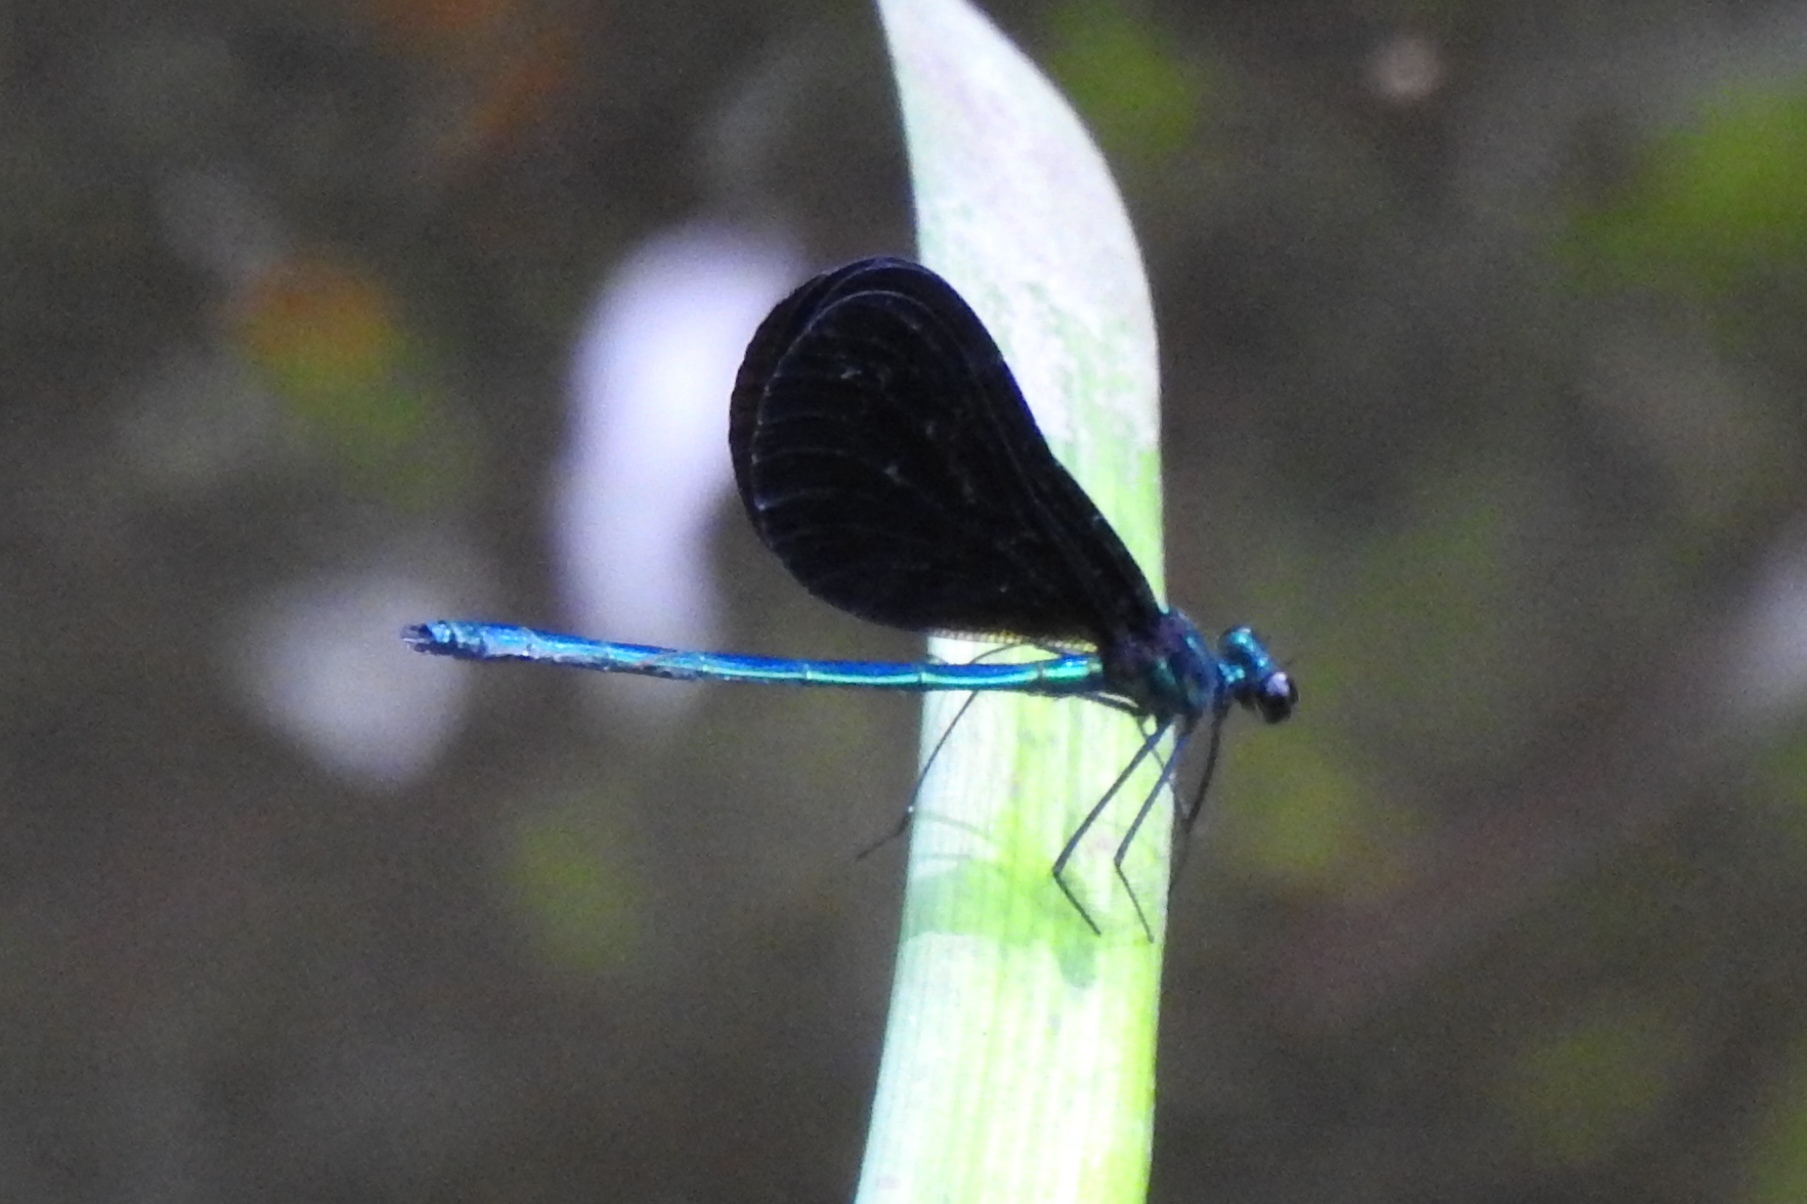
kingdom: Animalia
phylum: Arthropoda
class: Insecta
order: Odonata
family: Calopterygidae
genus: Calopteryx
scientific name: Calopteryx maculata
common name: Ebony jewelwing
